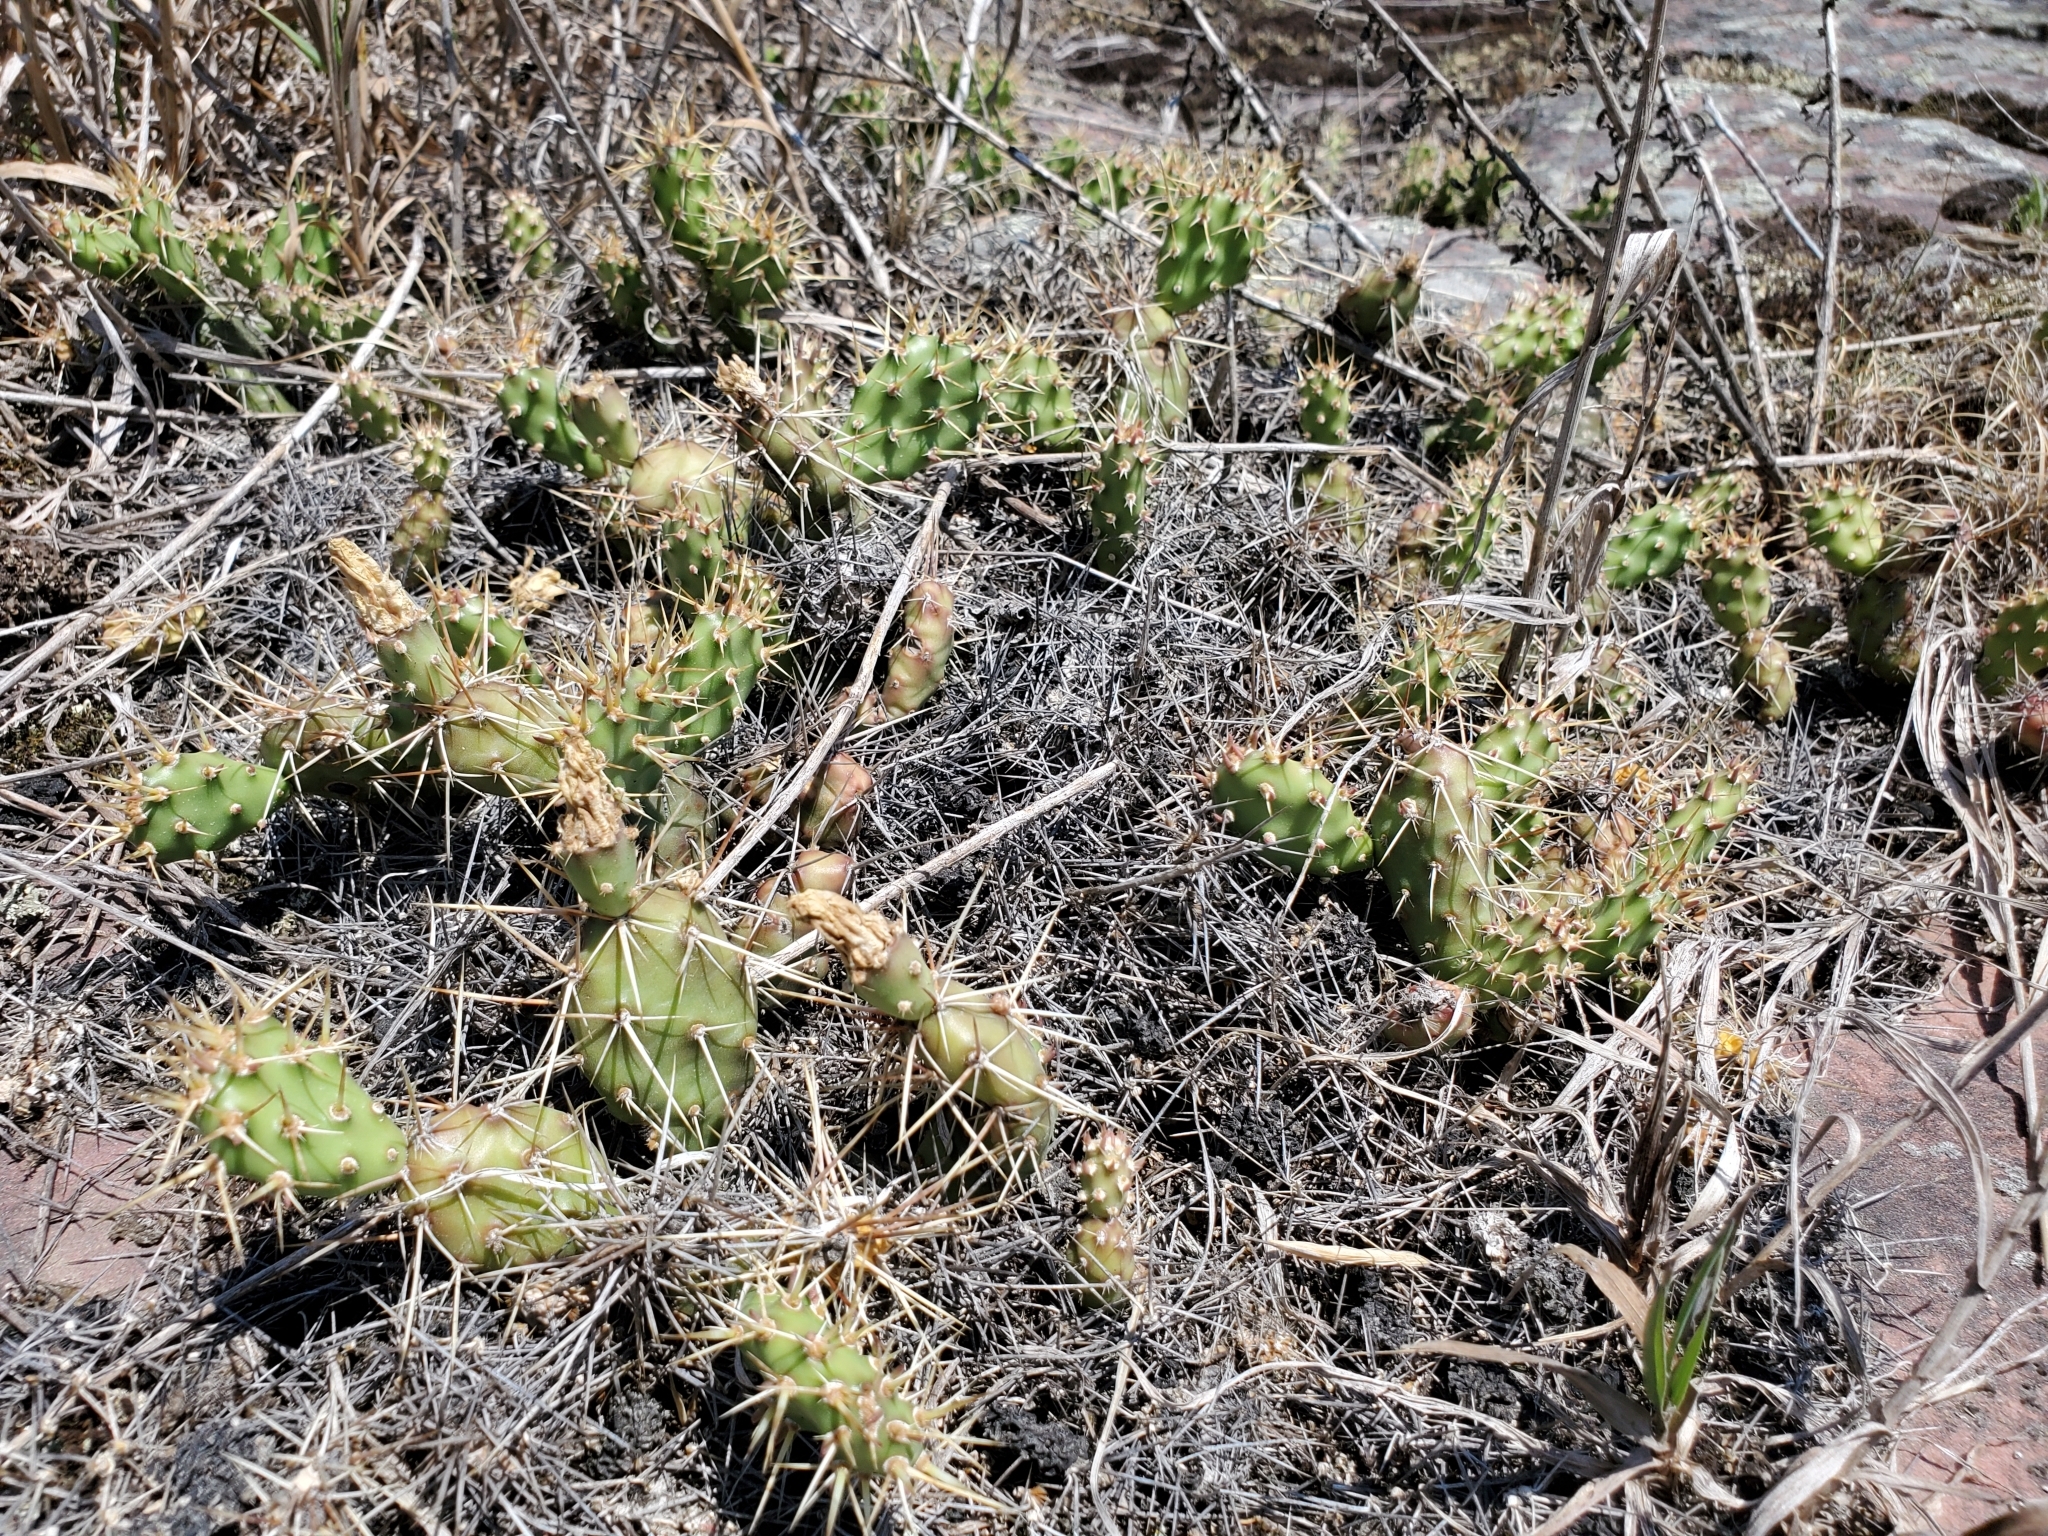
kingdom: Plantae
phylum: Tracheophyta
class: Magnoliopsida
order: Caryophyllales
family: Cactaceae
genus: Opuntia
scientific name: Opuntia fragilis
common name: Brittle cactus
